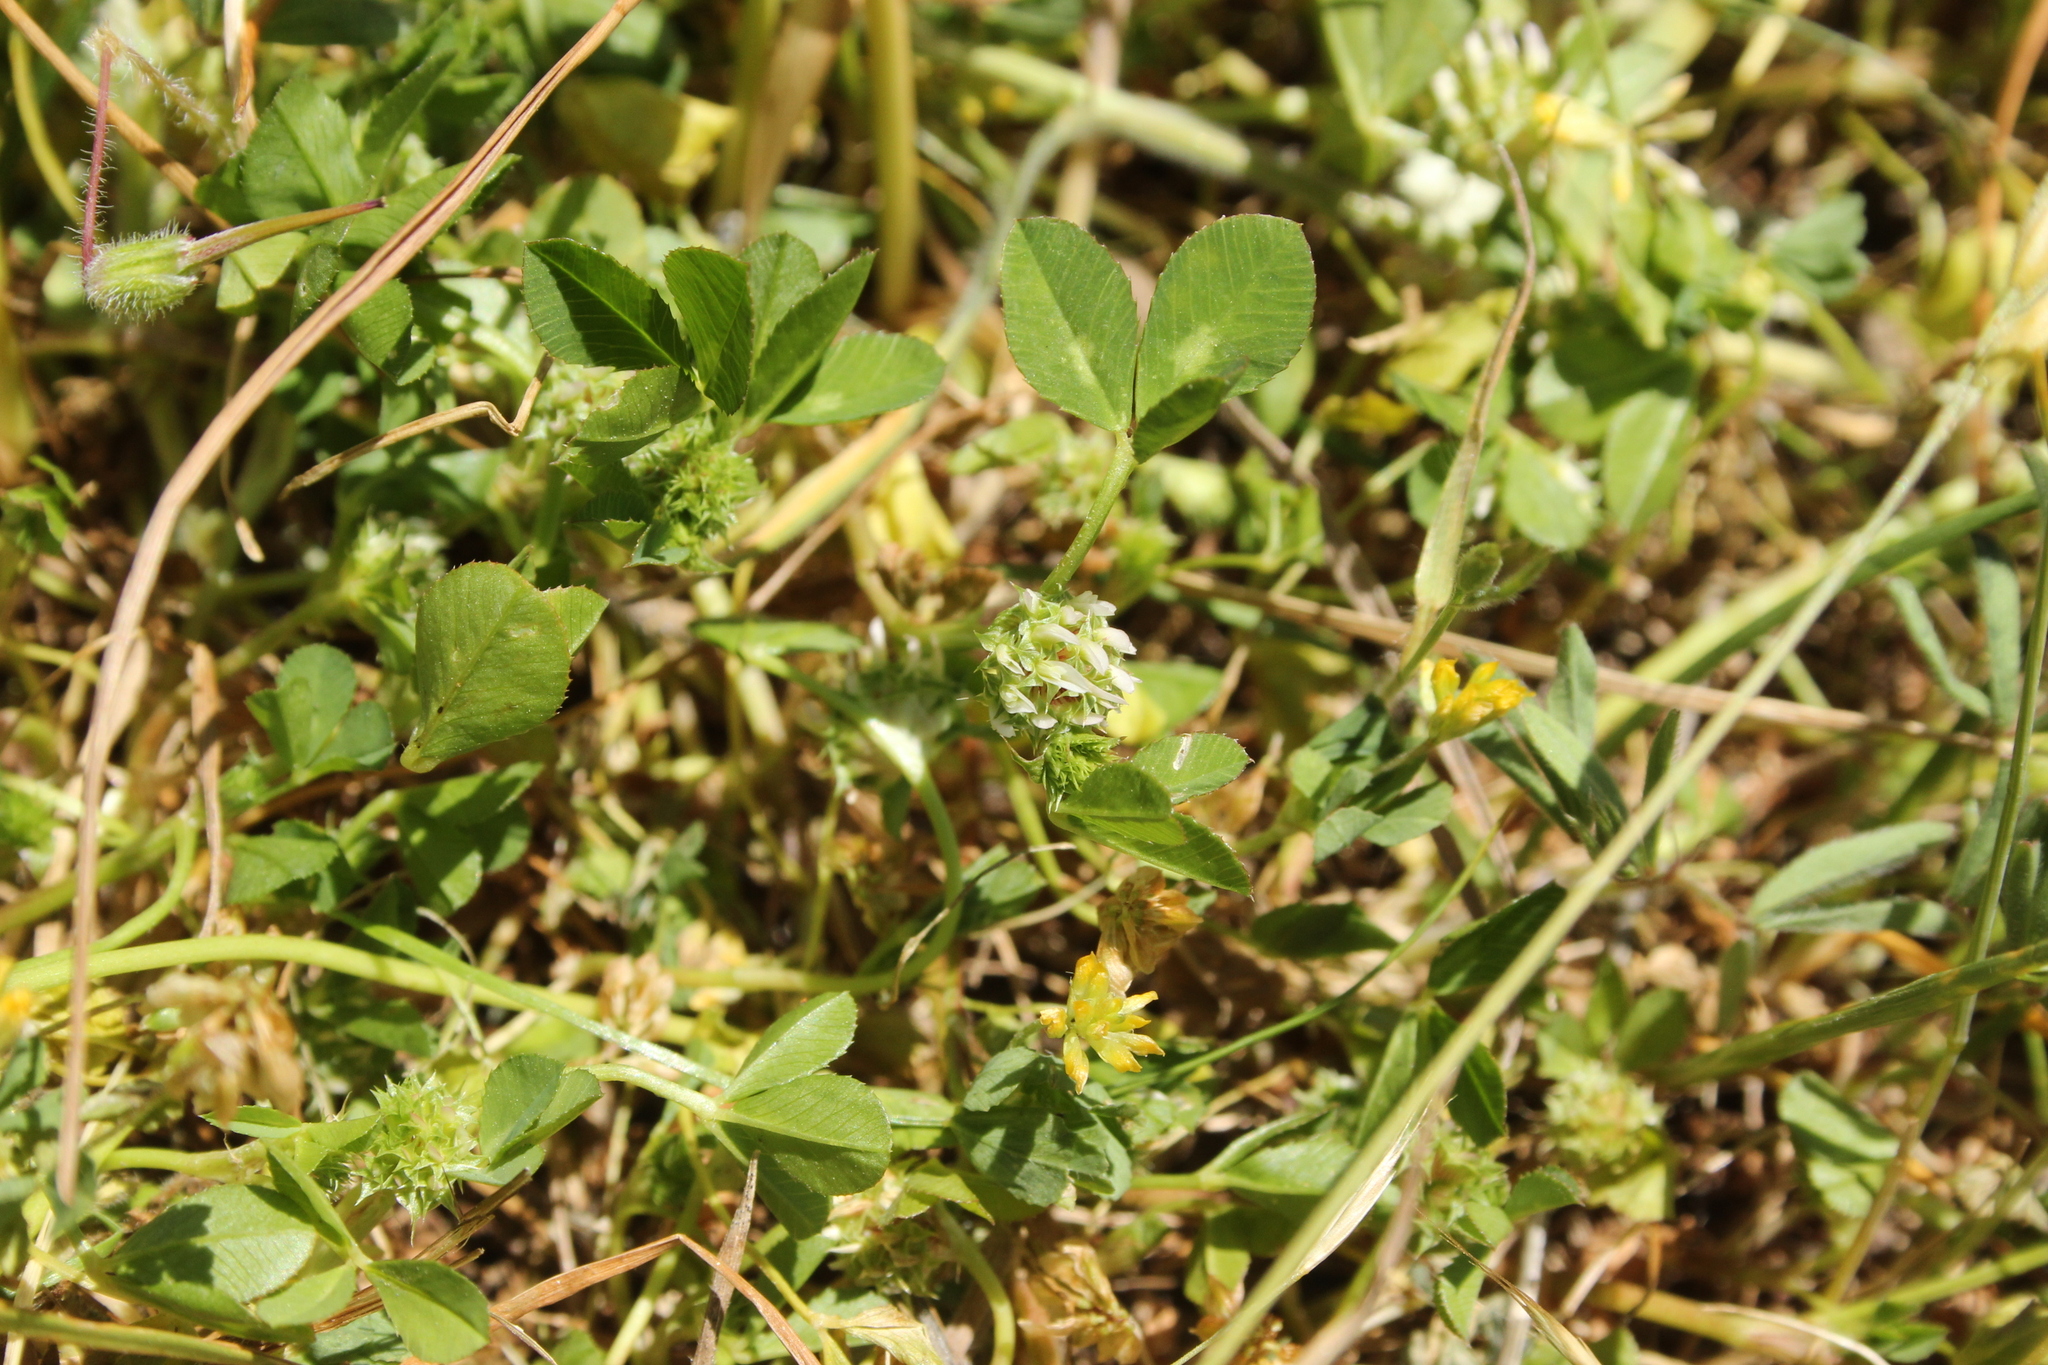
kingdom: Plantae
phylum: Tracheophyta
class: Magnoliopsida
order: Fabales
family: Fabaceae
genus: Trifolium
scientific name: Trifolium glomeratum
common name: Clustered clover
